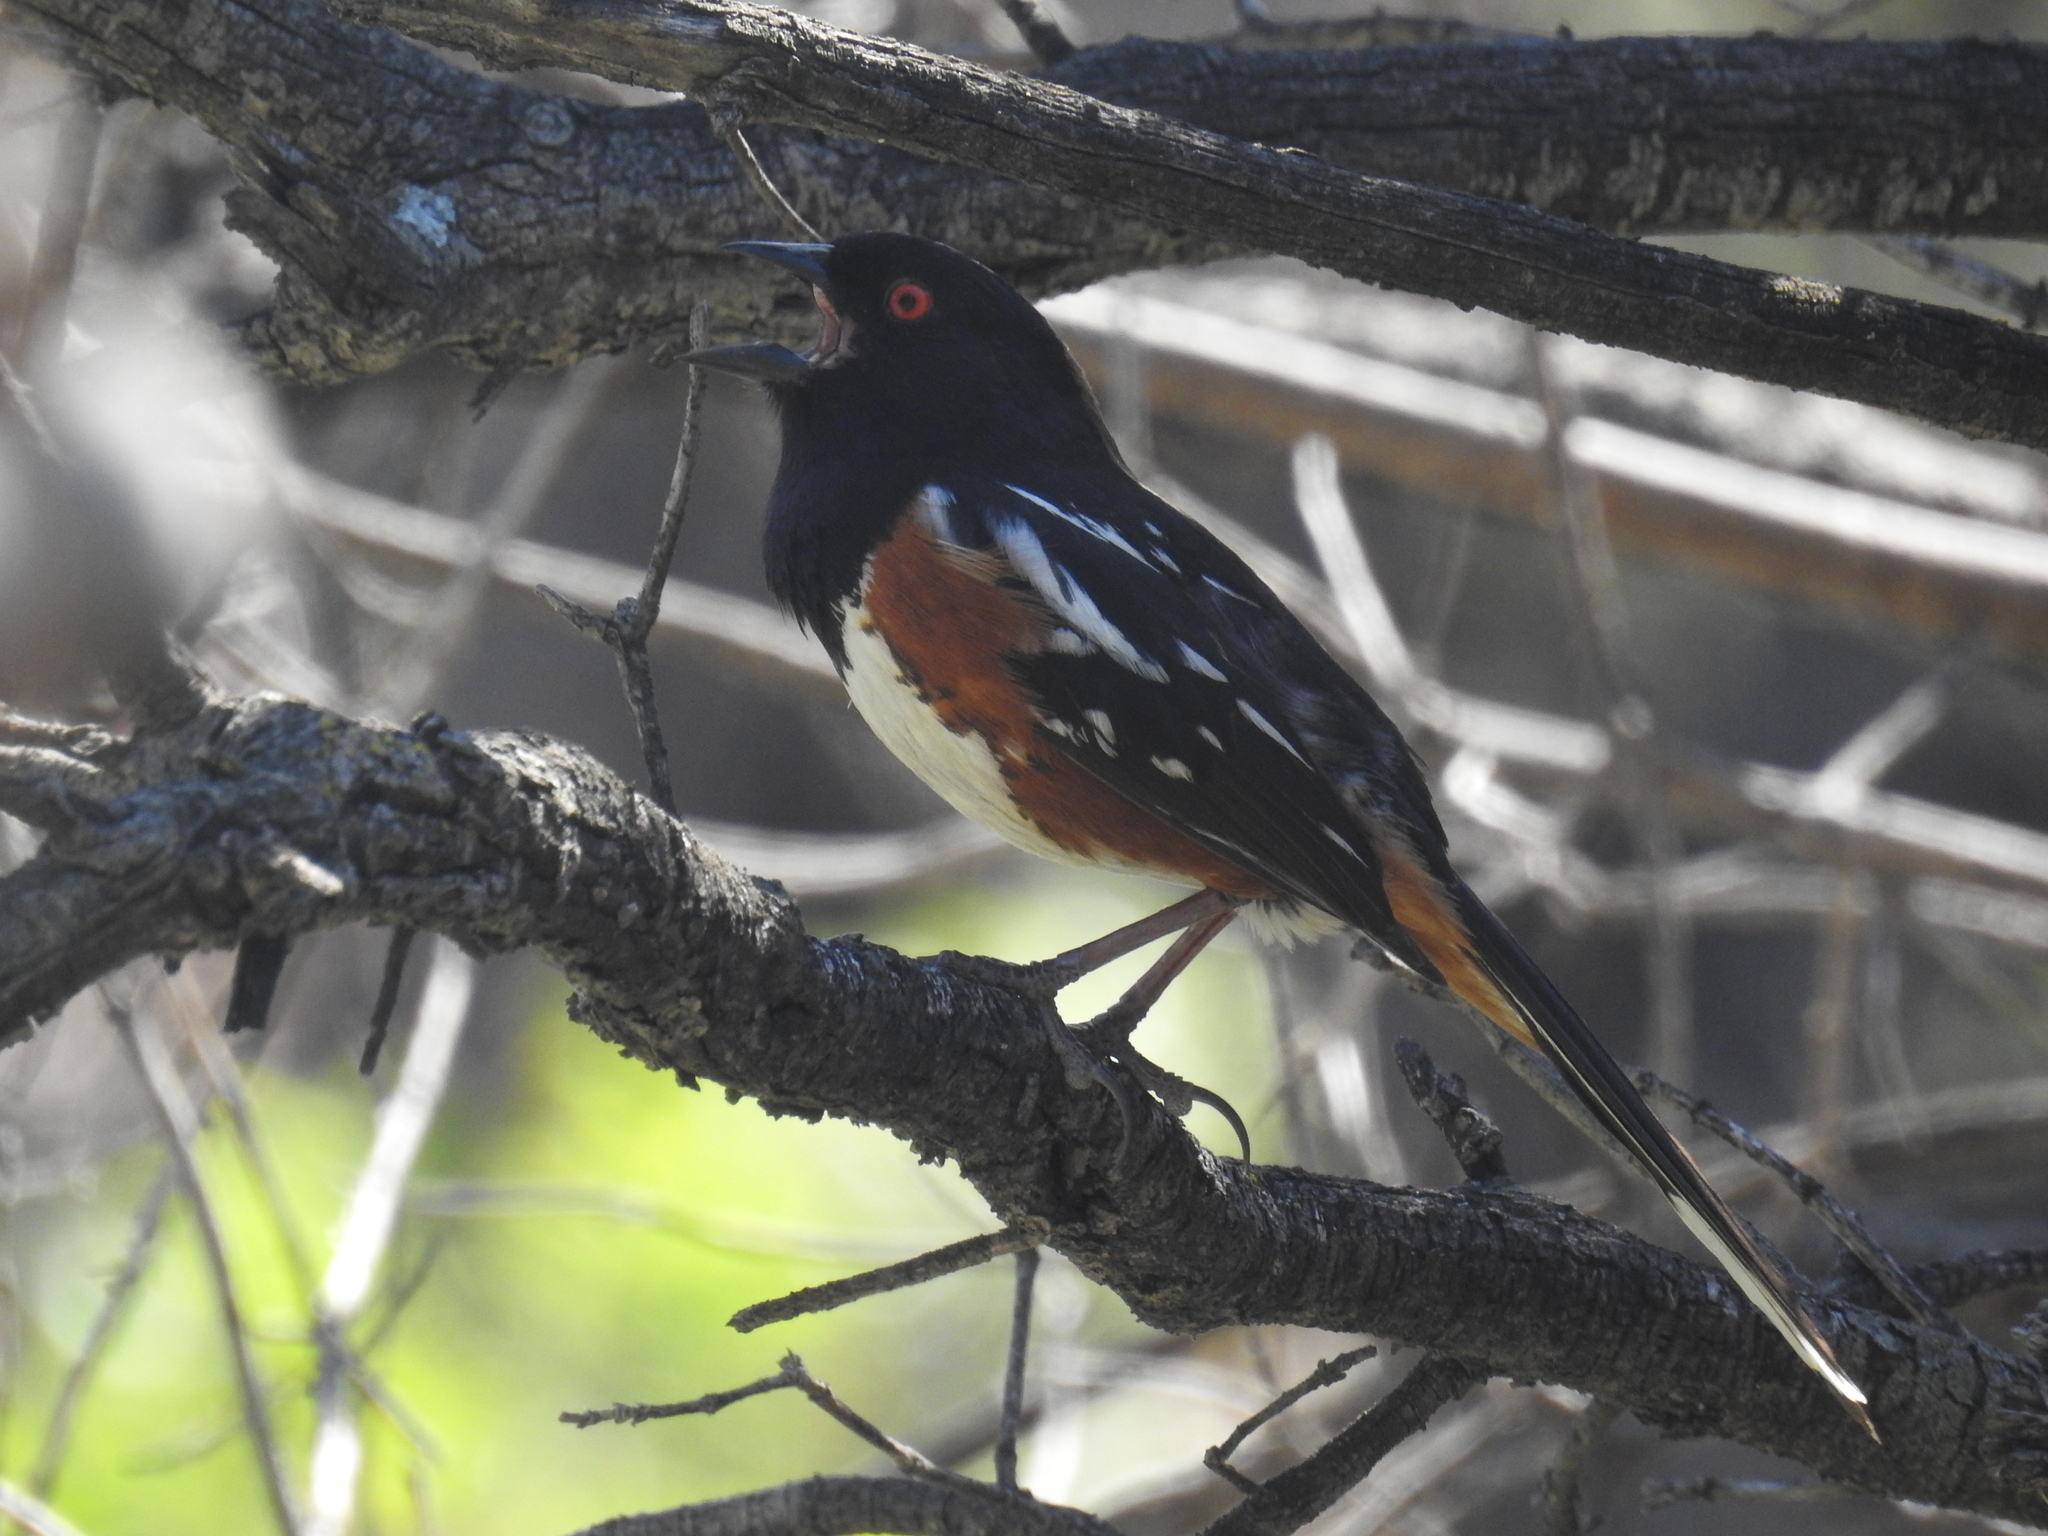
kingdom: Animalia
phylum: Chordata
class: Aves
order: Passeriformes
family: Passerellidae
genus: Pipilo
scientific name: Pipilo maculatus
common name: Spotted towhee
